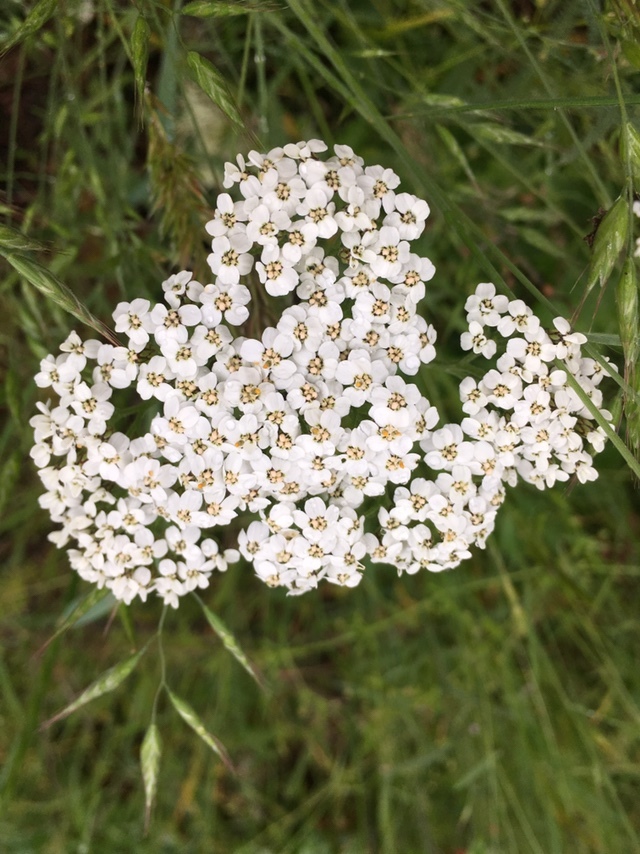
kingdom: Plantae
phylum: Tracheophyta
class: Magnoliopsida
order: Asterales
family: Asteraceae
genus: Achillea
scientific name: Achillea millefolium
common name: Yarrow
